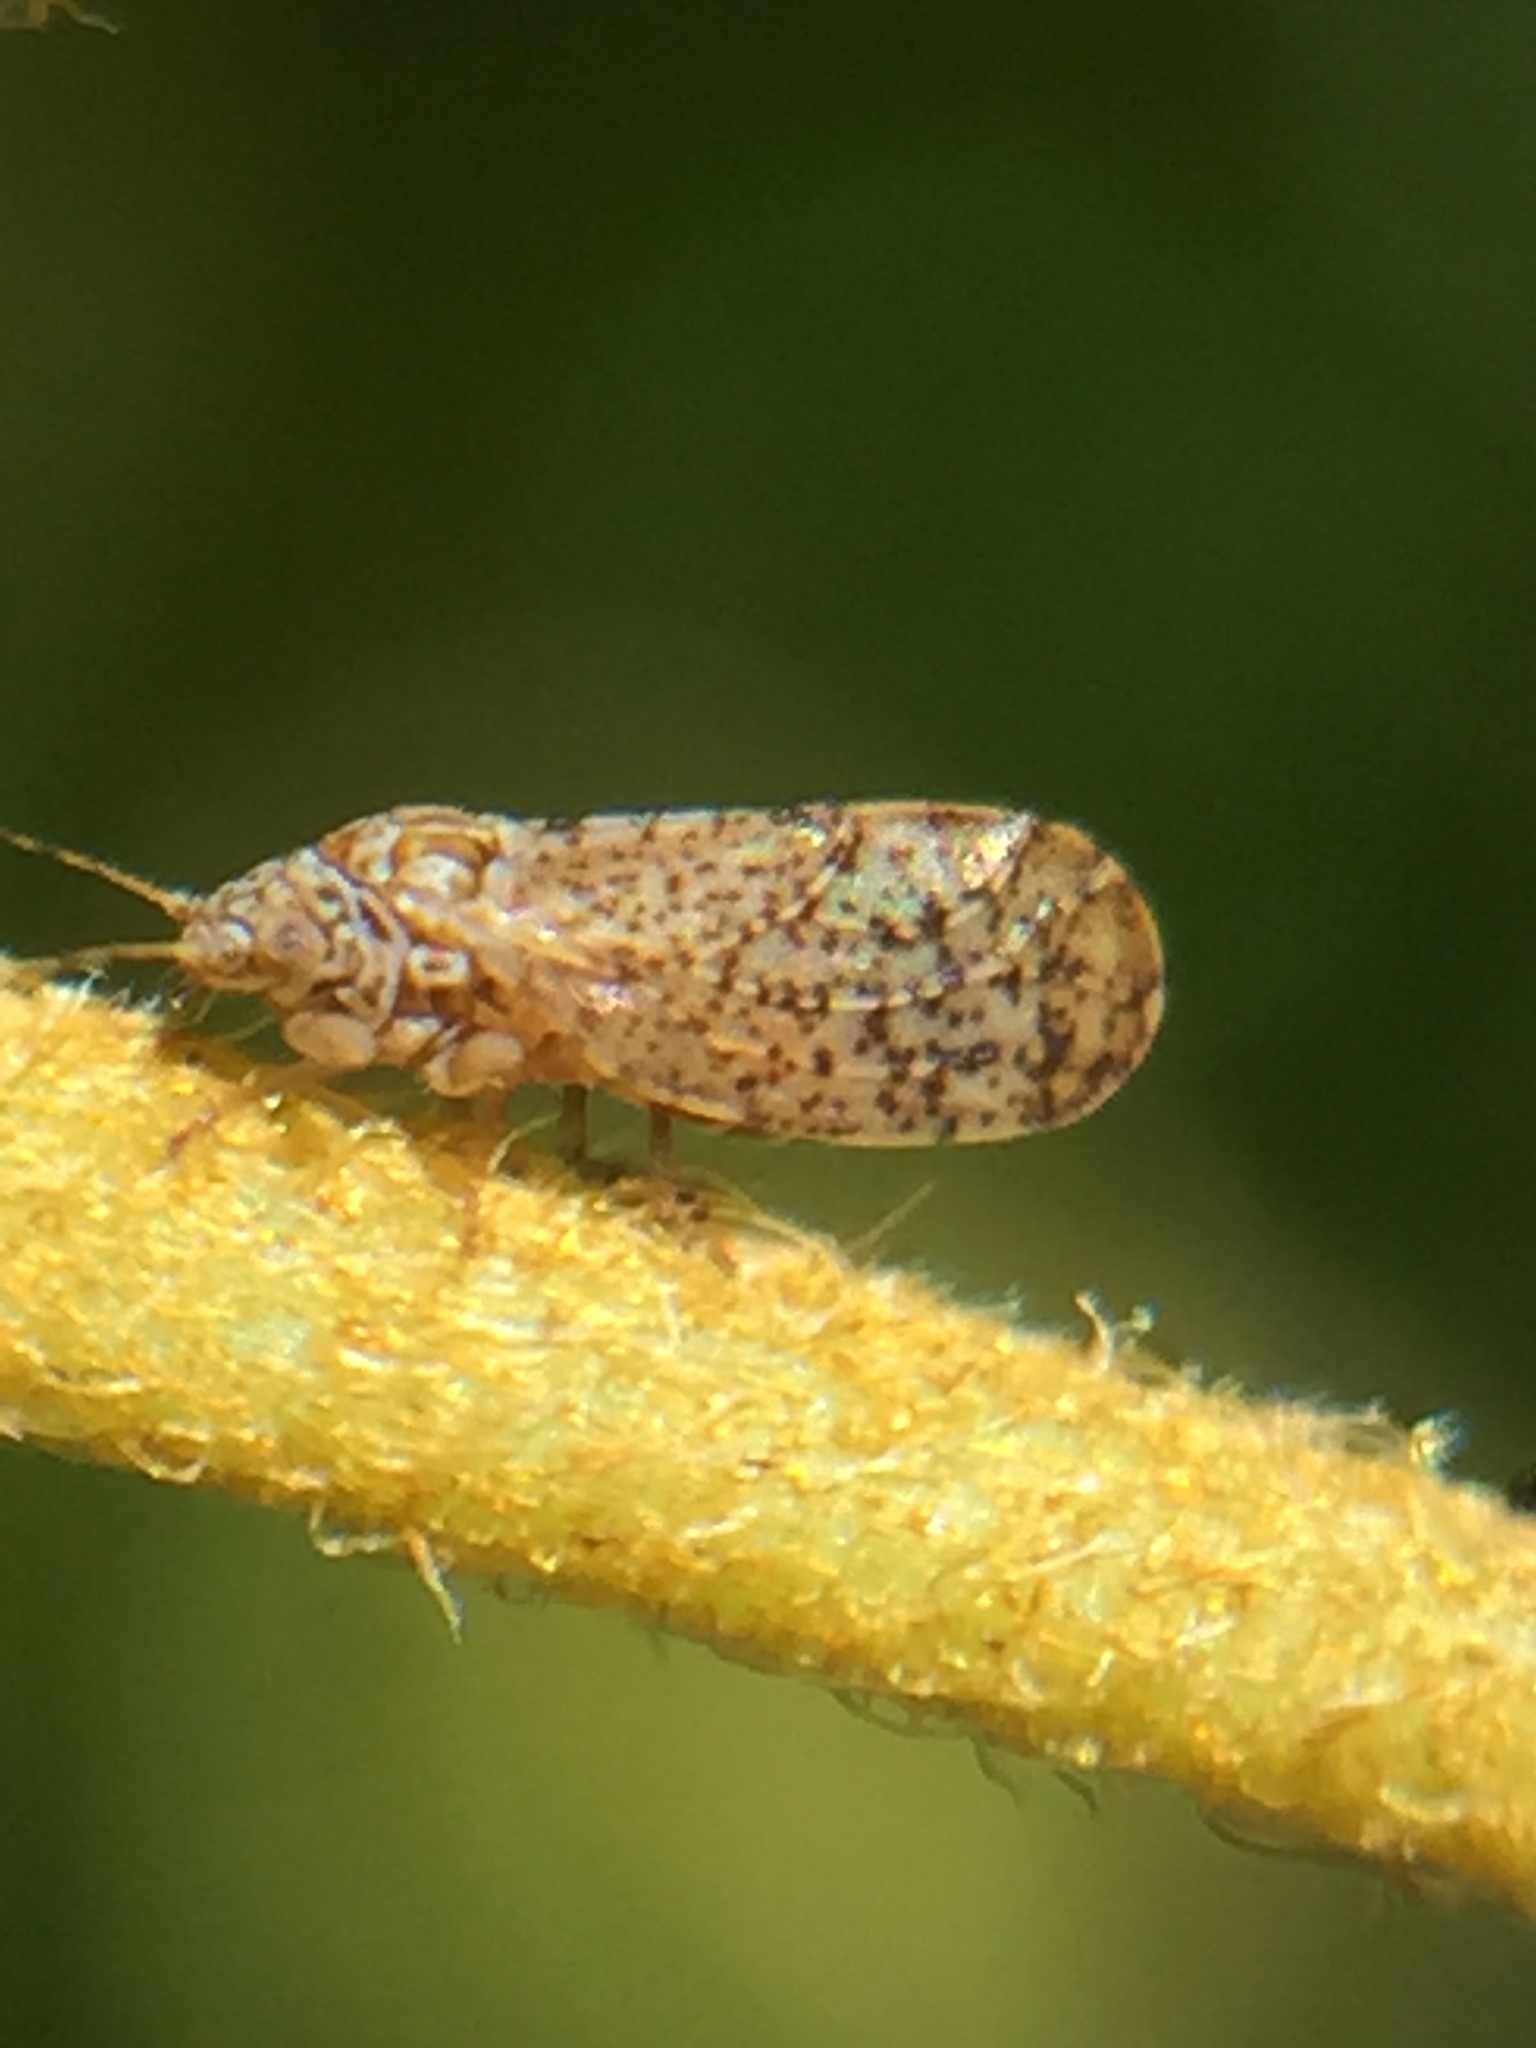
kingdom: Animalia
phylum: Arthropoda
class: Insecta
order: Hemiptera
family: Psyllidae
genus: Psylla
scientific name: Psylla frodobagginsi
